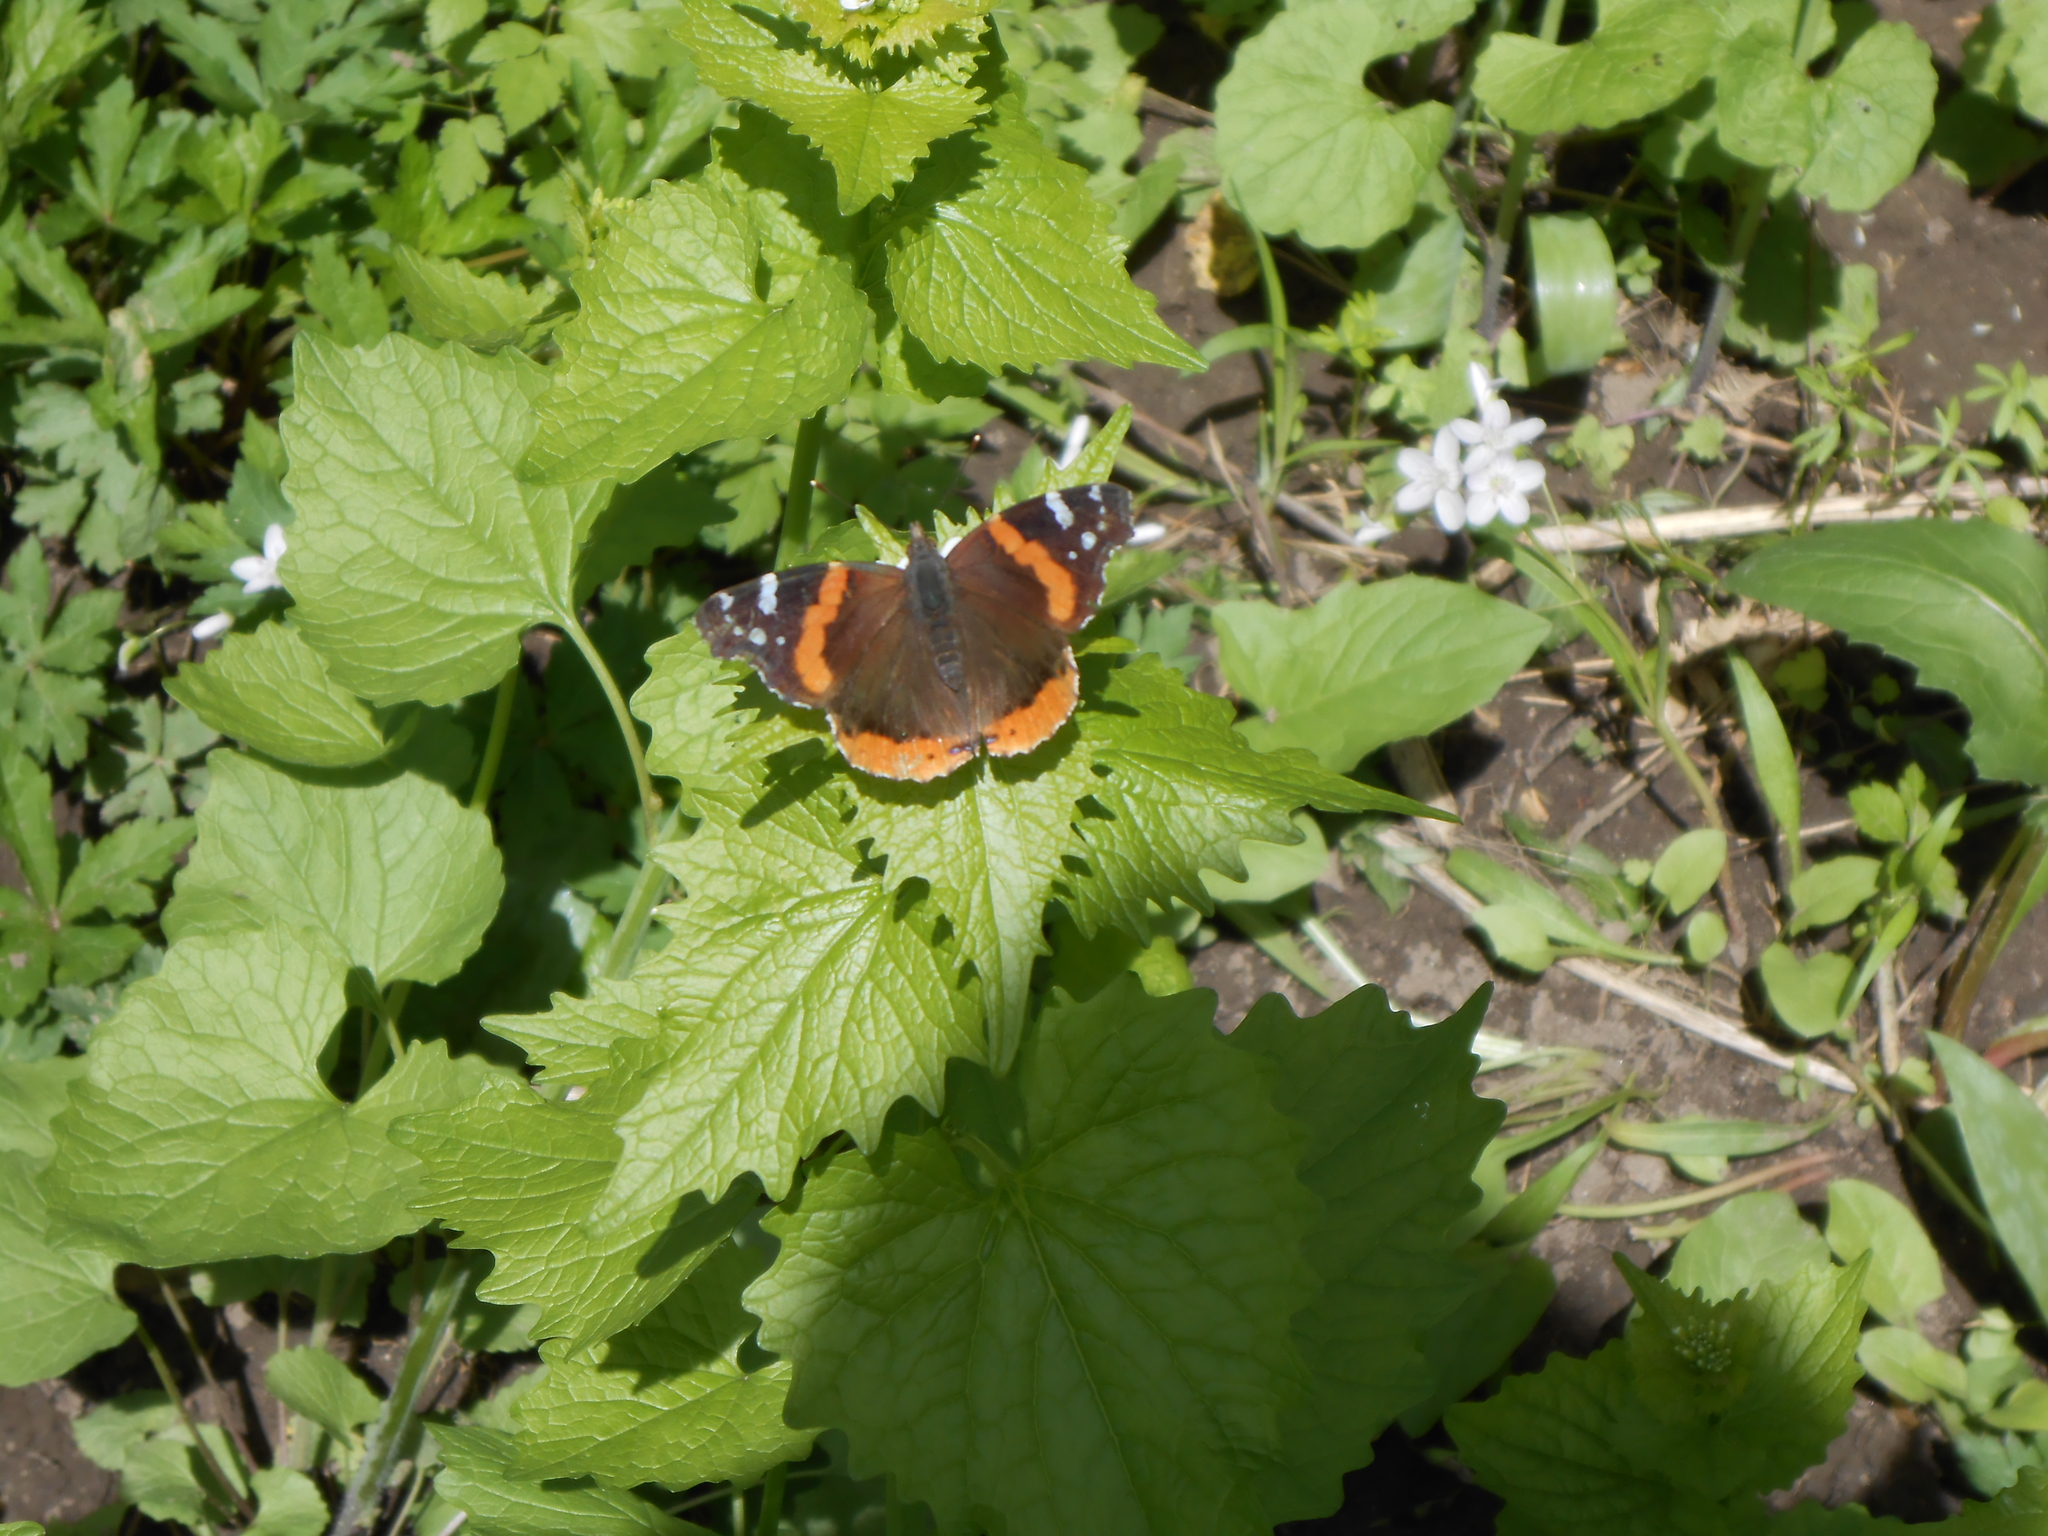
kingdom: Animalia
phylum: Arthropoda
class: Insecta
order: Lepidoptera
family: Nymphalidae
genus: Vanessa
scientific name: Vanessa atalanta
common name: Red admiral
